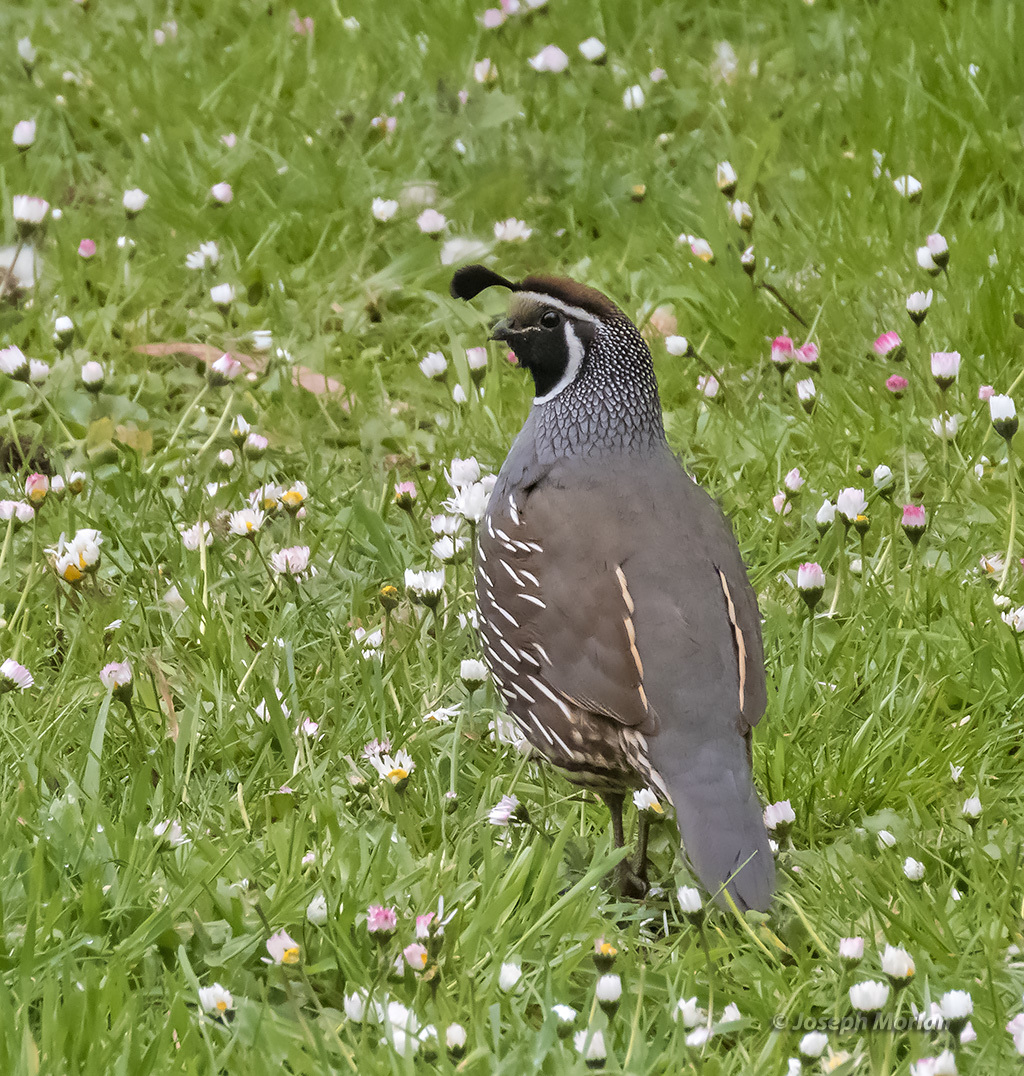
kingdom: Animalia
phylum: Chordata
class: Aves
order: Galliformes
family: Odontophoridae
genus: Callipepla
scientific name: Callipepla californica
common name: California quail
